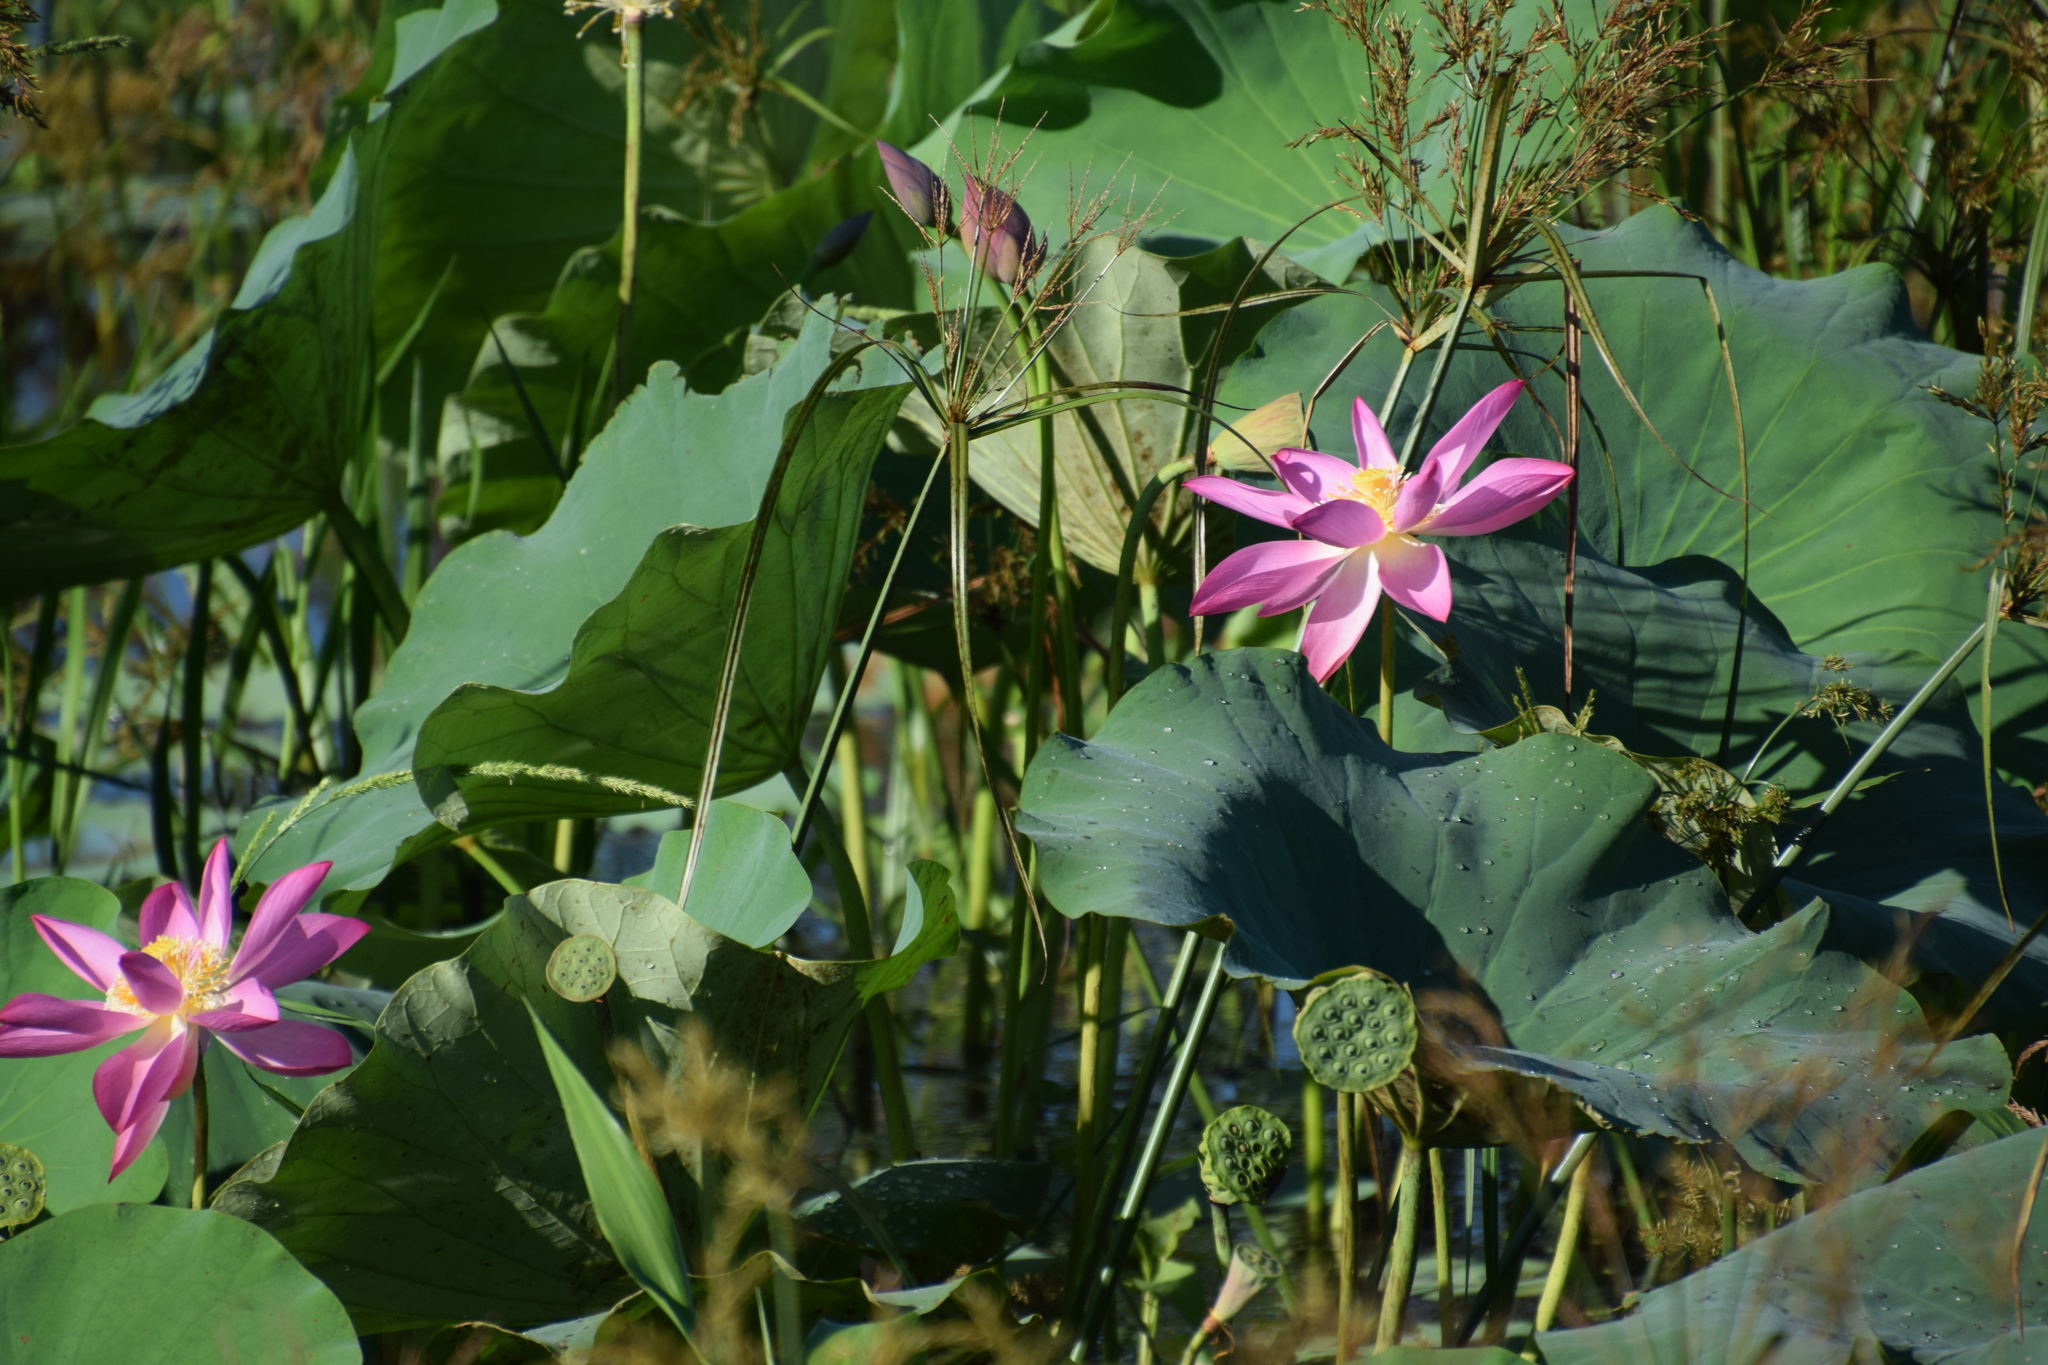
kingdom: Plantae
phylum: Tracheophyta
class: Magnoliopsida
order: Proteales
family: Nelumbonaceae
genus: Nelumbo
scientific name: Nelumbo nucifera
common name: Sacred lotus
